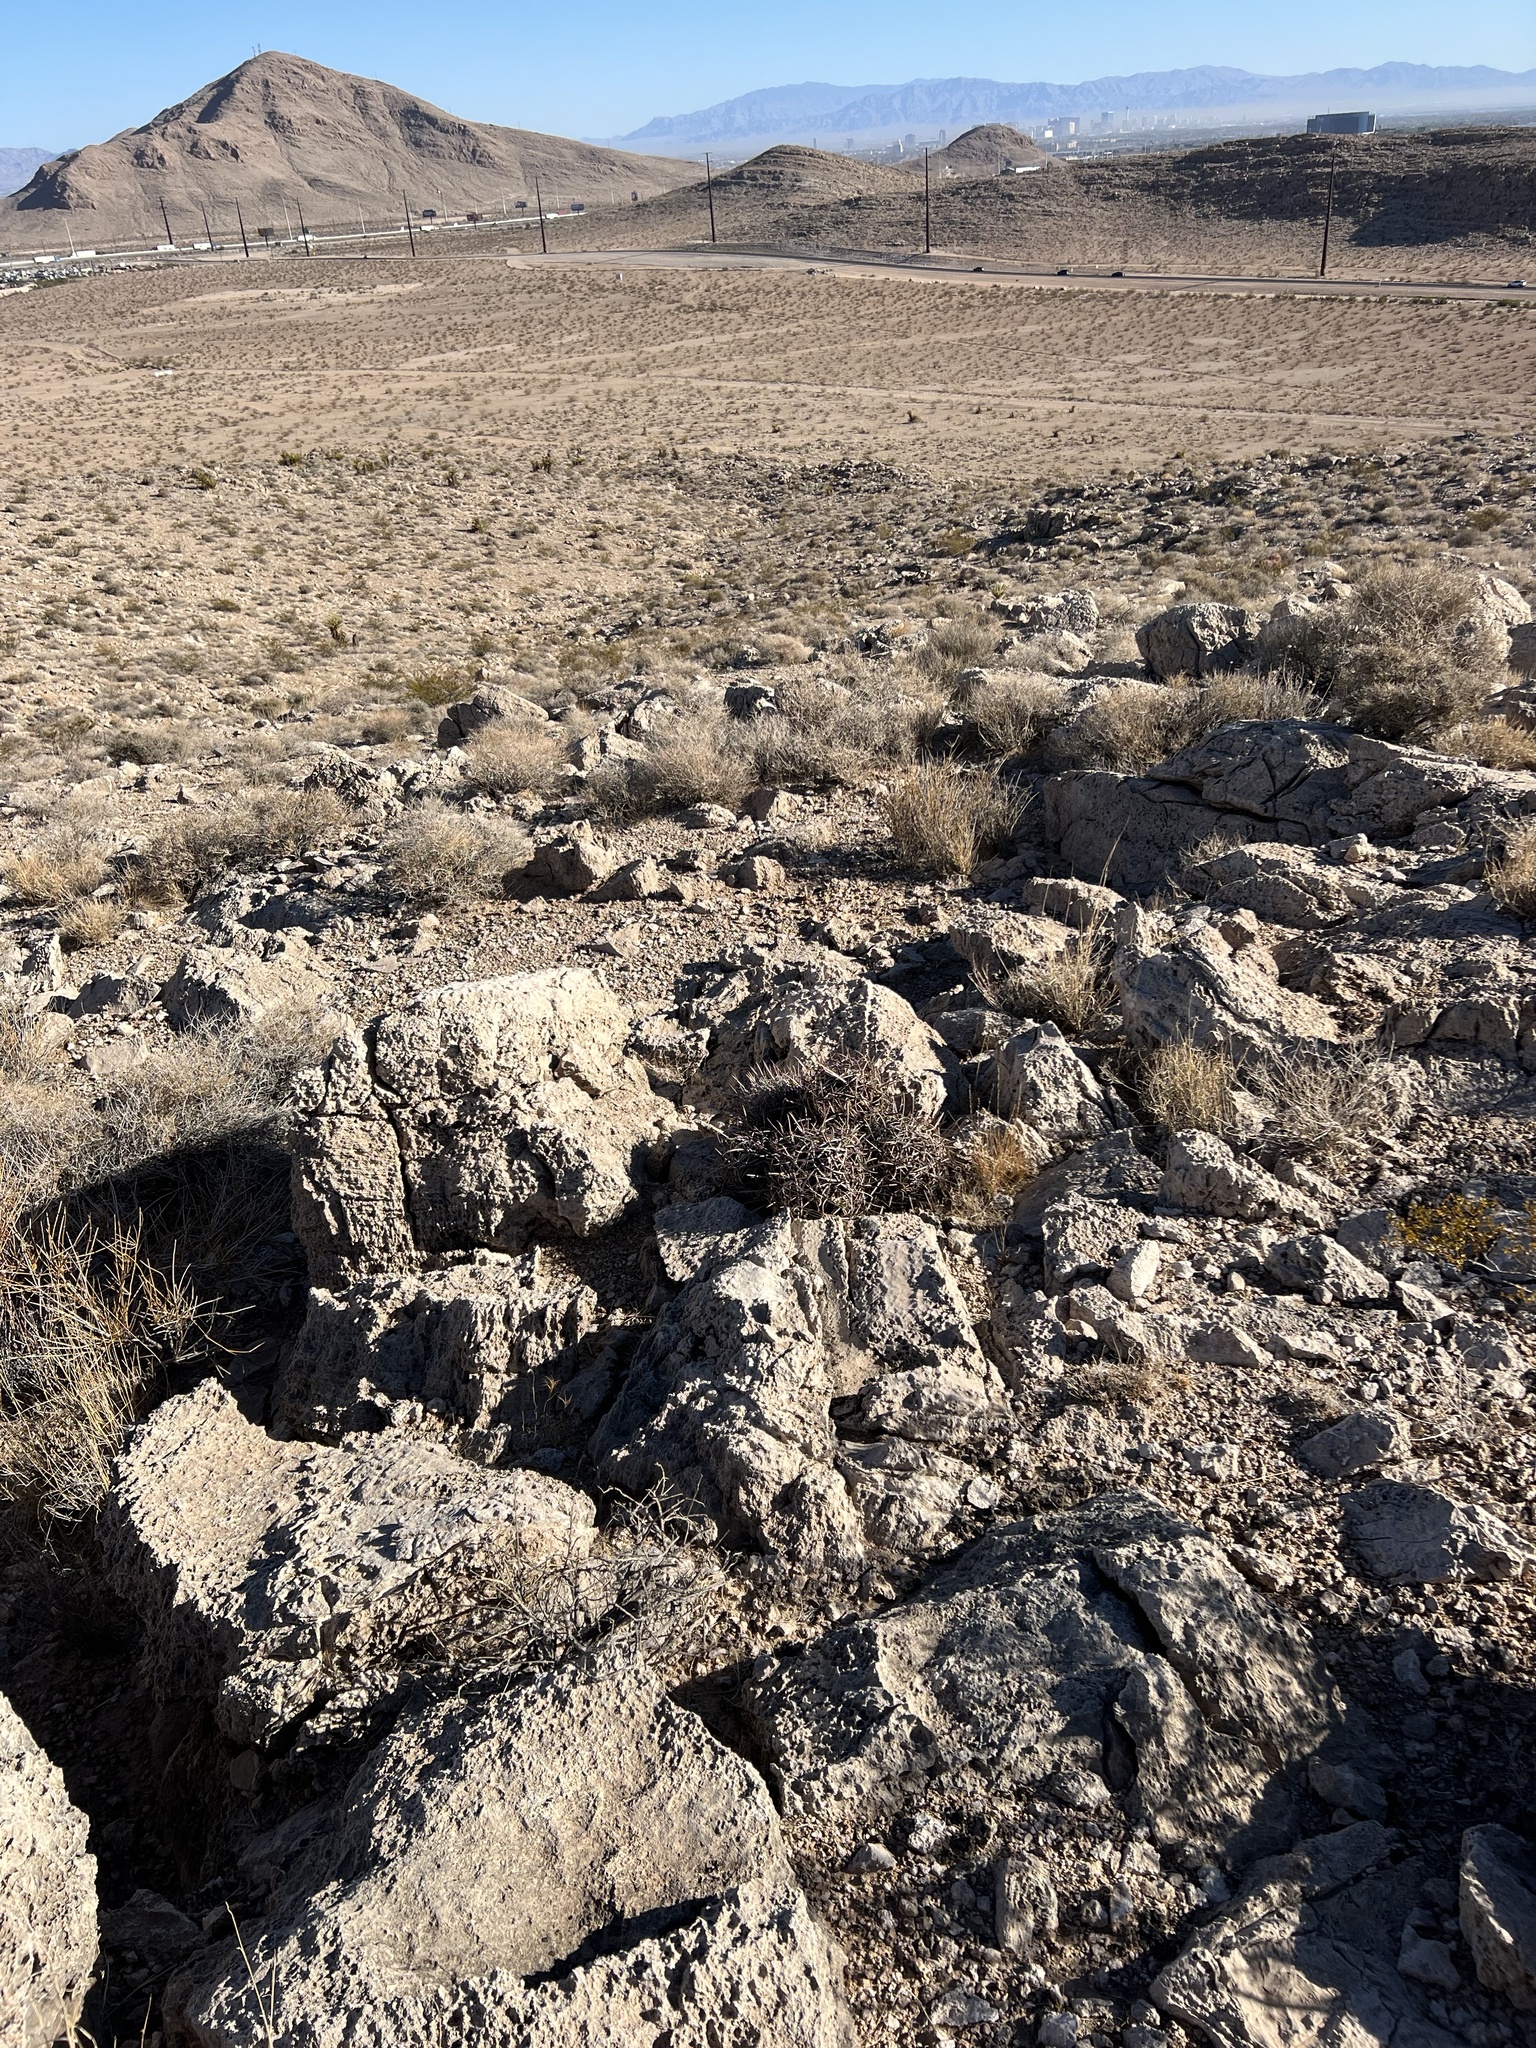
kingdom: Plantae
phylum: Tracheophyta
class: Magnoliopsida
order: Caryophyllales
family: Cactaceae
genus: Echinocactus
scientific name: Echinocactus polycephalus
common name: Cottontop cactus
